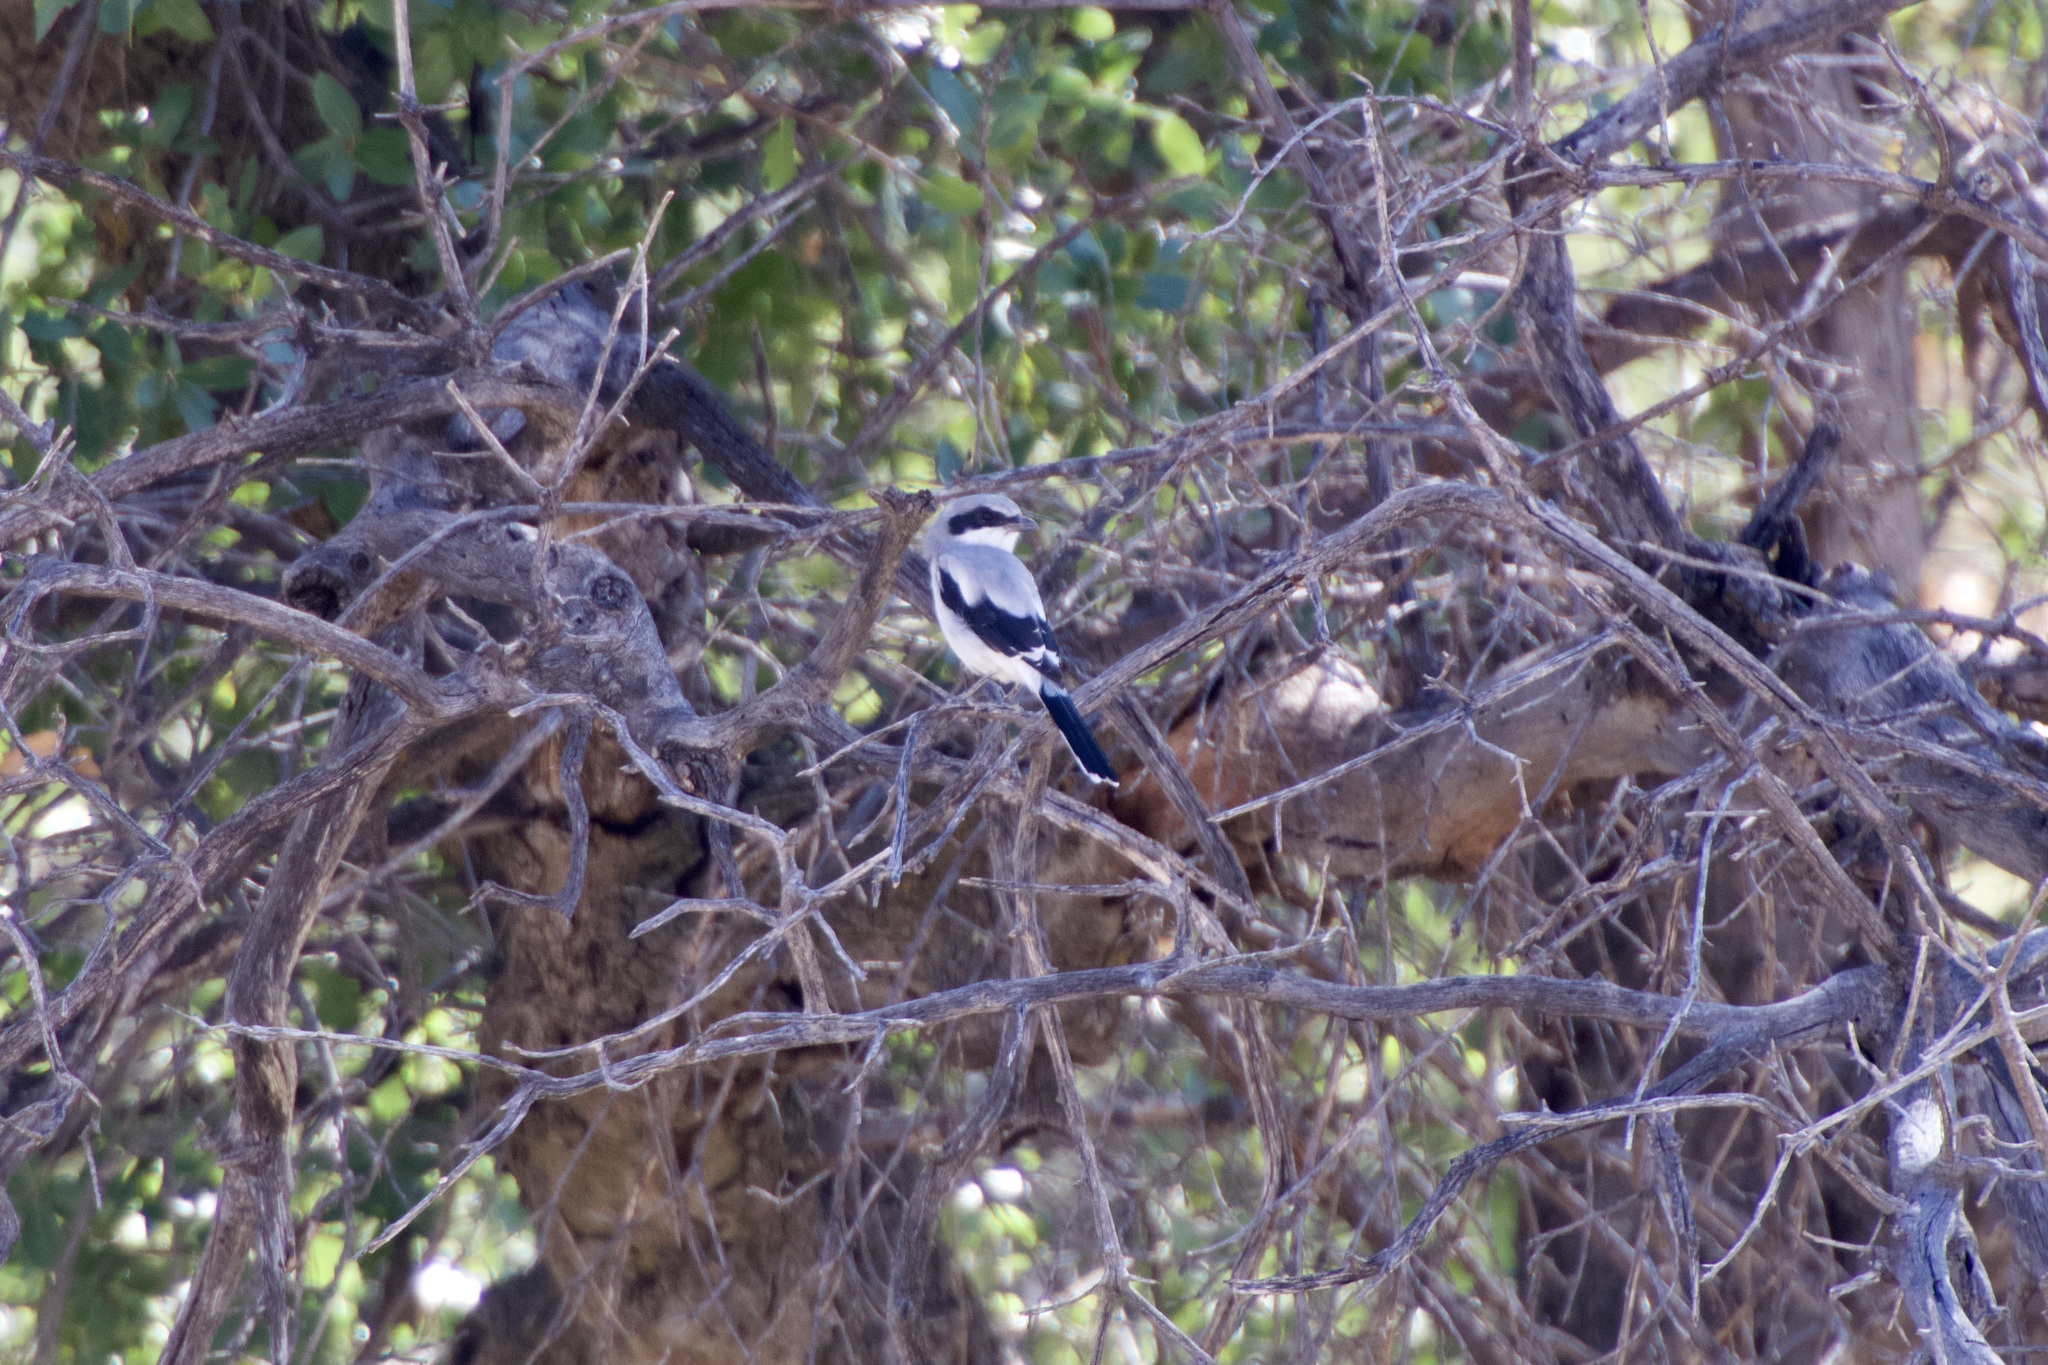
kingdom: Animalia
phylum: Chordata
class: Aves
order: Passeriformes
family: Laniidae
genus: Lanius
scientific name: Lanius ludovicianus
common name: Loggerhead shrike
